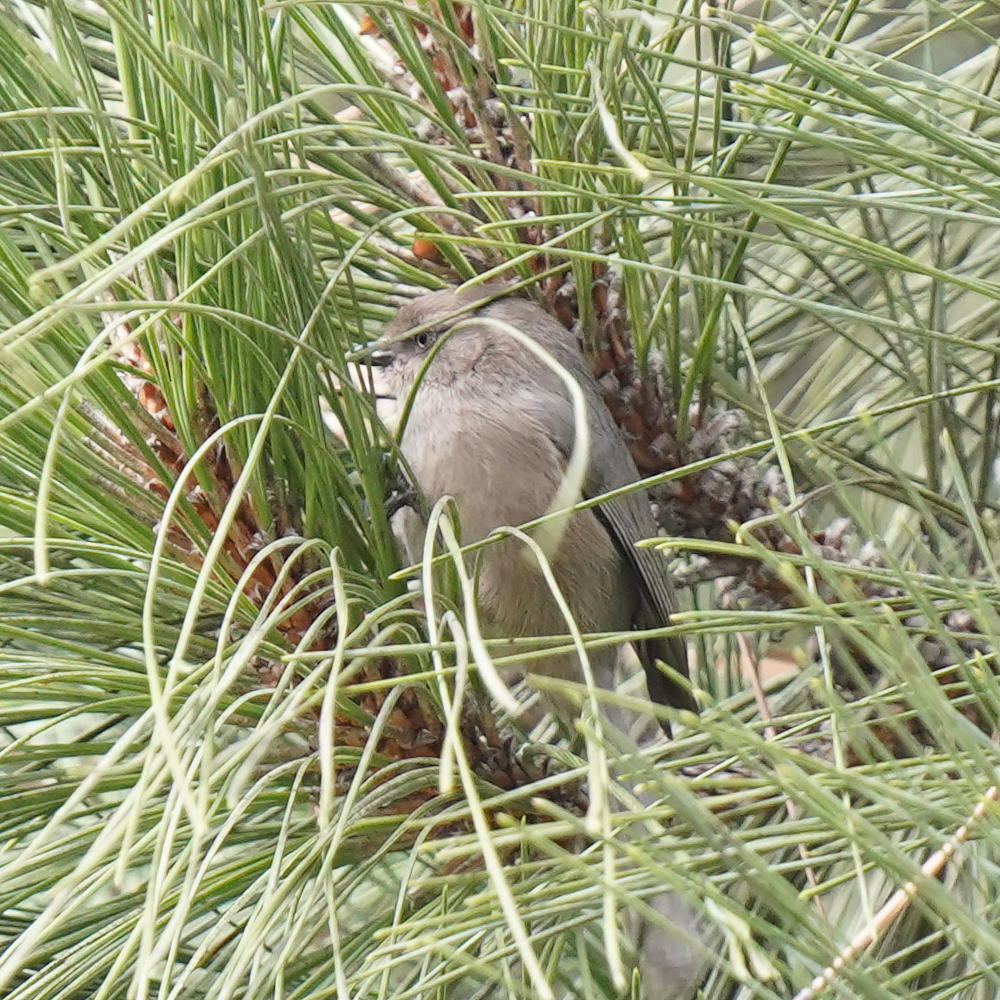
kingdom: Animalia
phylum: Chordata
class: Aves
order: Passeriformes
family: Aegithalidae
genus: Psaltriparus
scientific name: Psaltriparus minimus
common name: American bushtit
